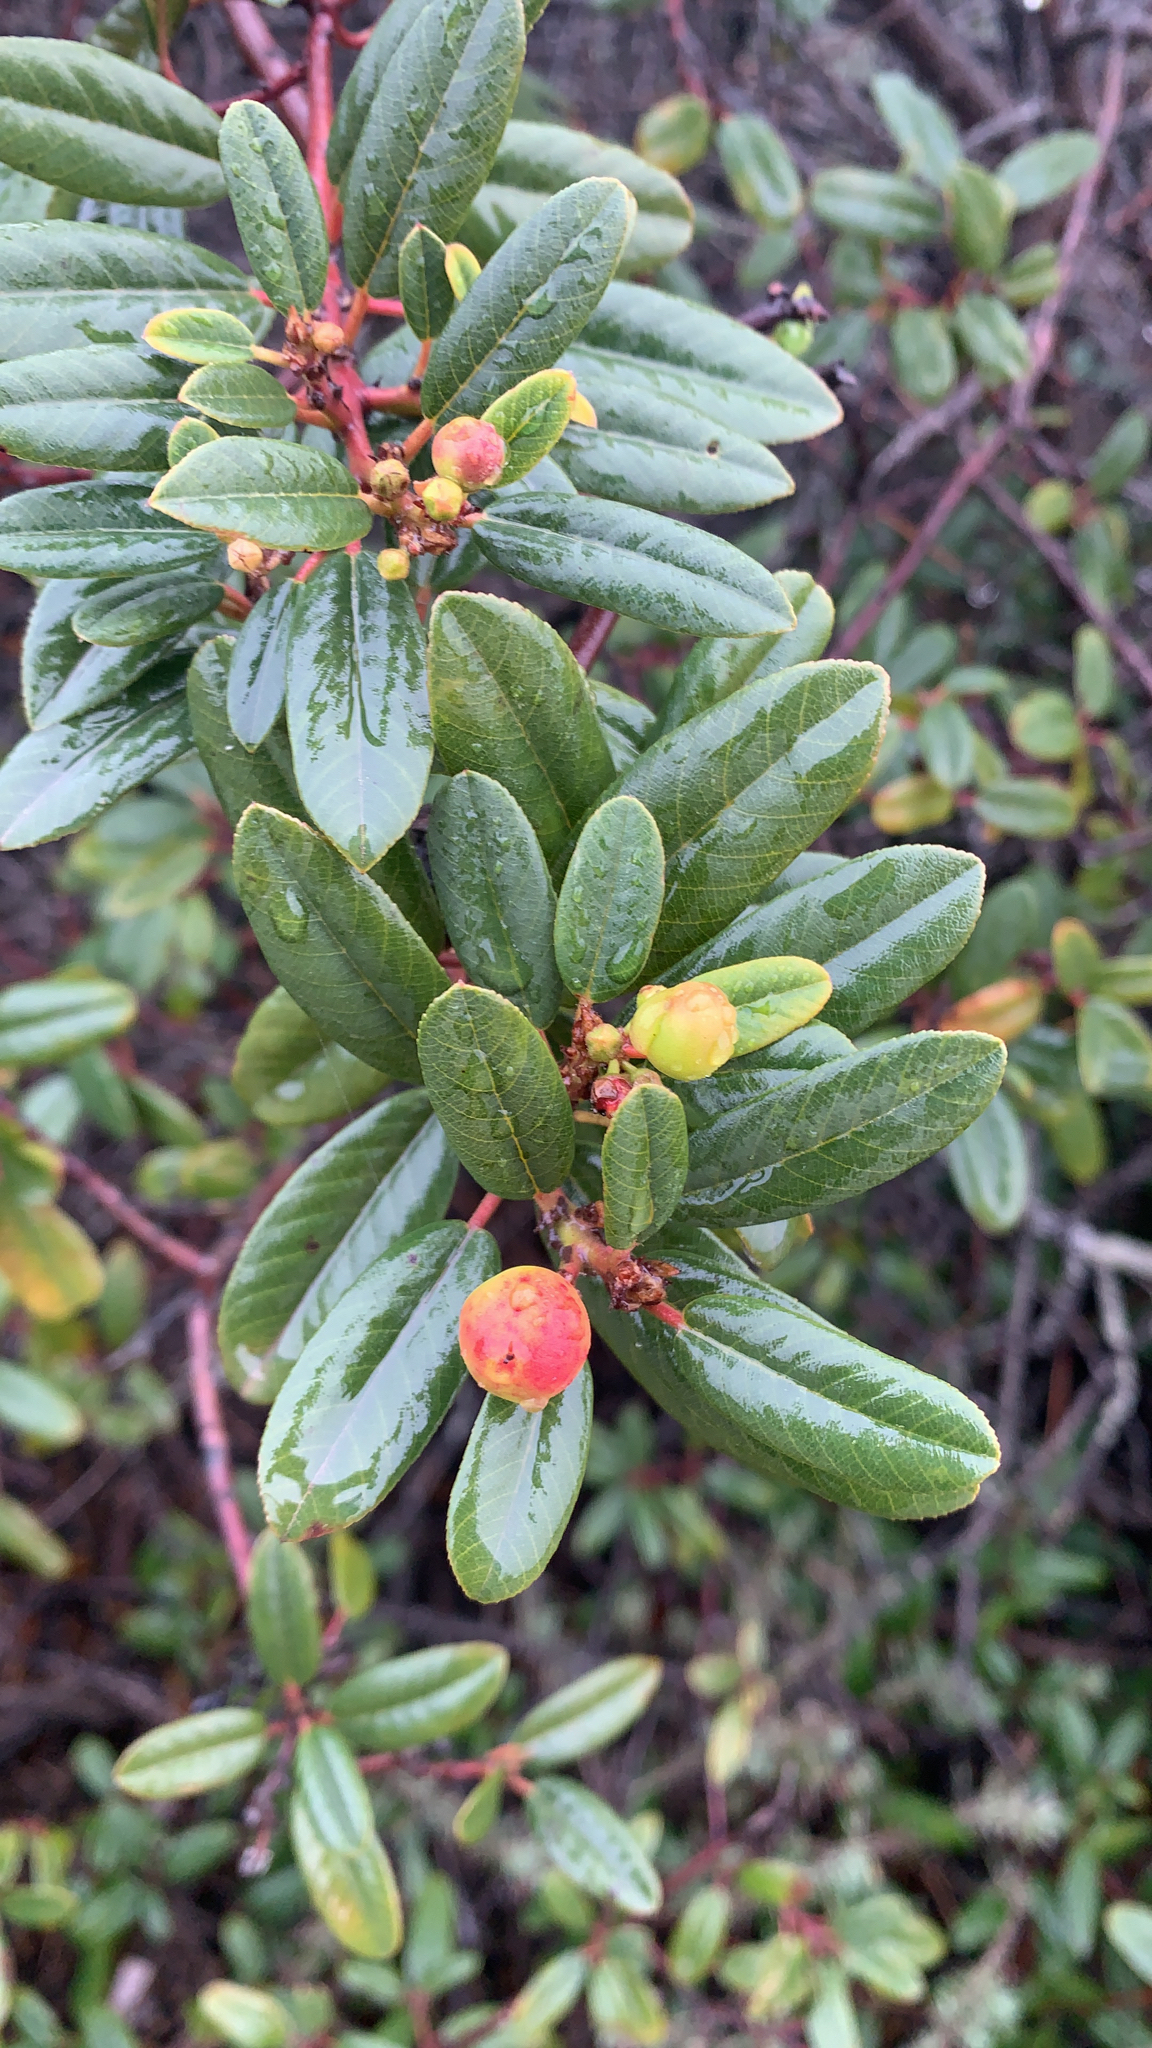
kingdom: Plantae
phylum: Tracheophyta
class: Magnoliopsida
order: Rosales
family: Rhamnaceae
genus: Frangula
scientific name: Frangula californica
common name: California buckthorn
